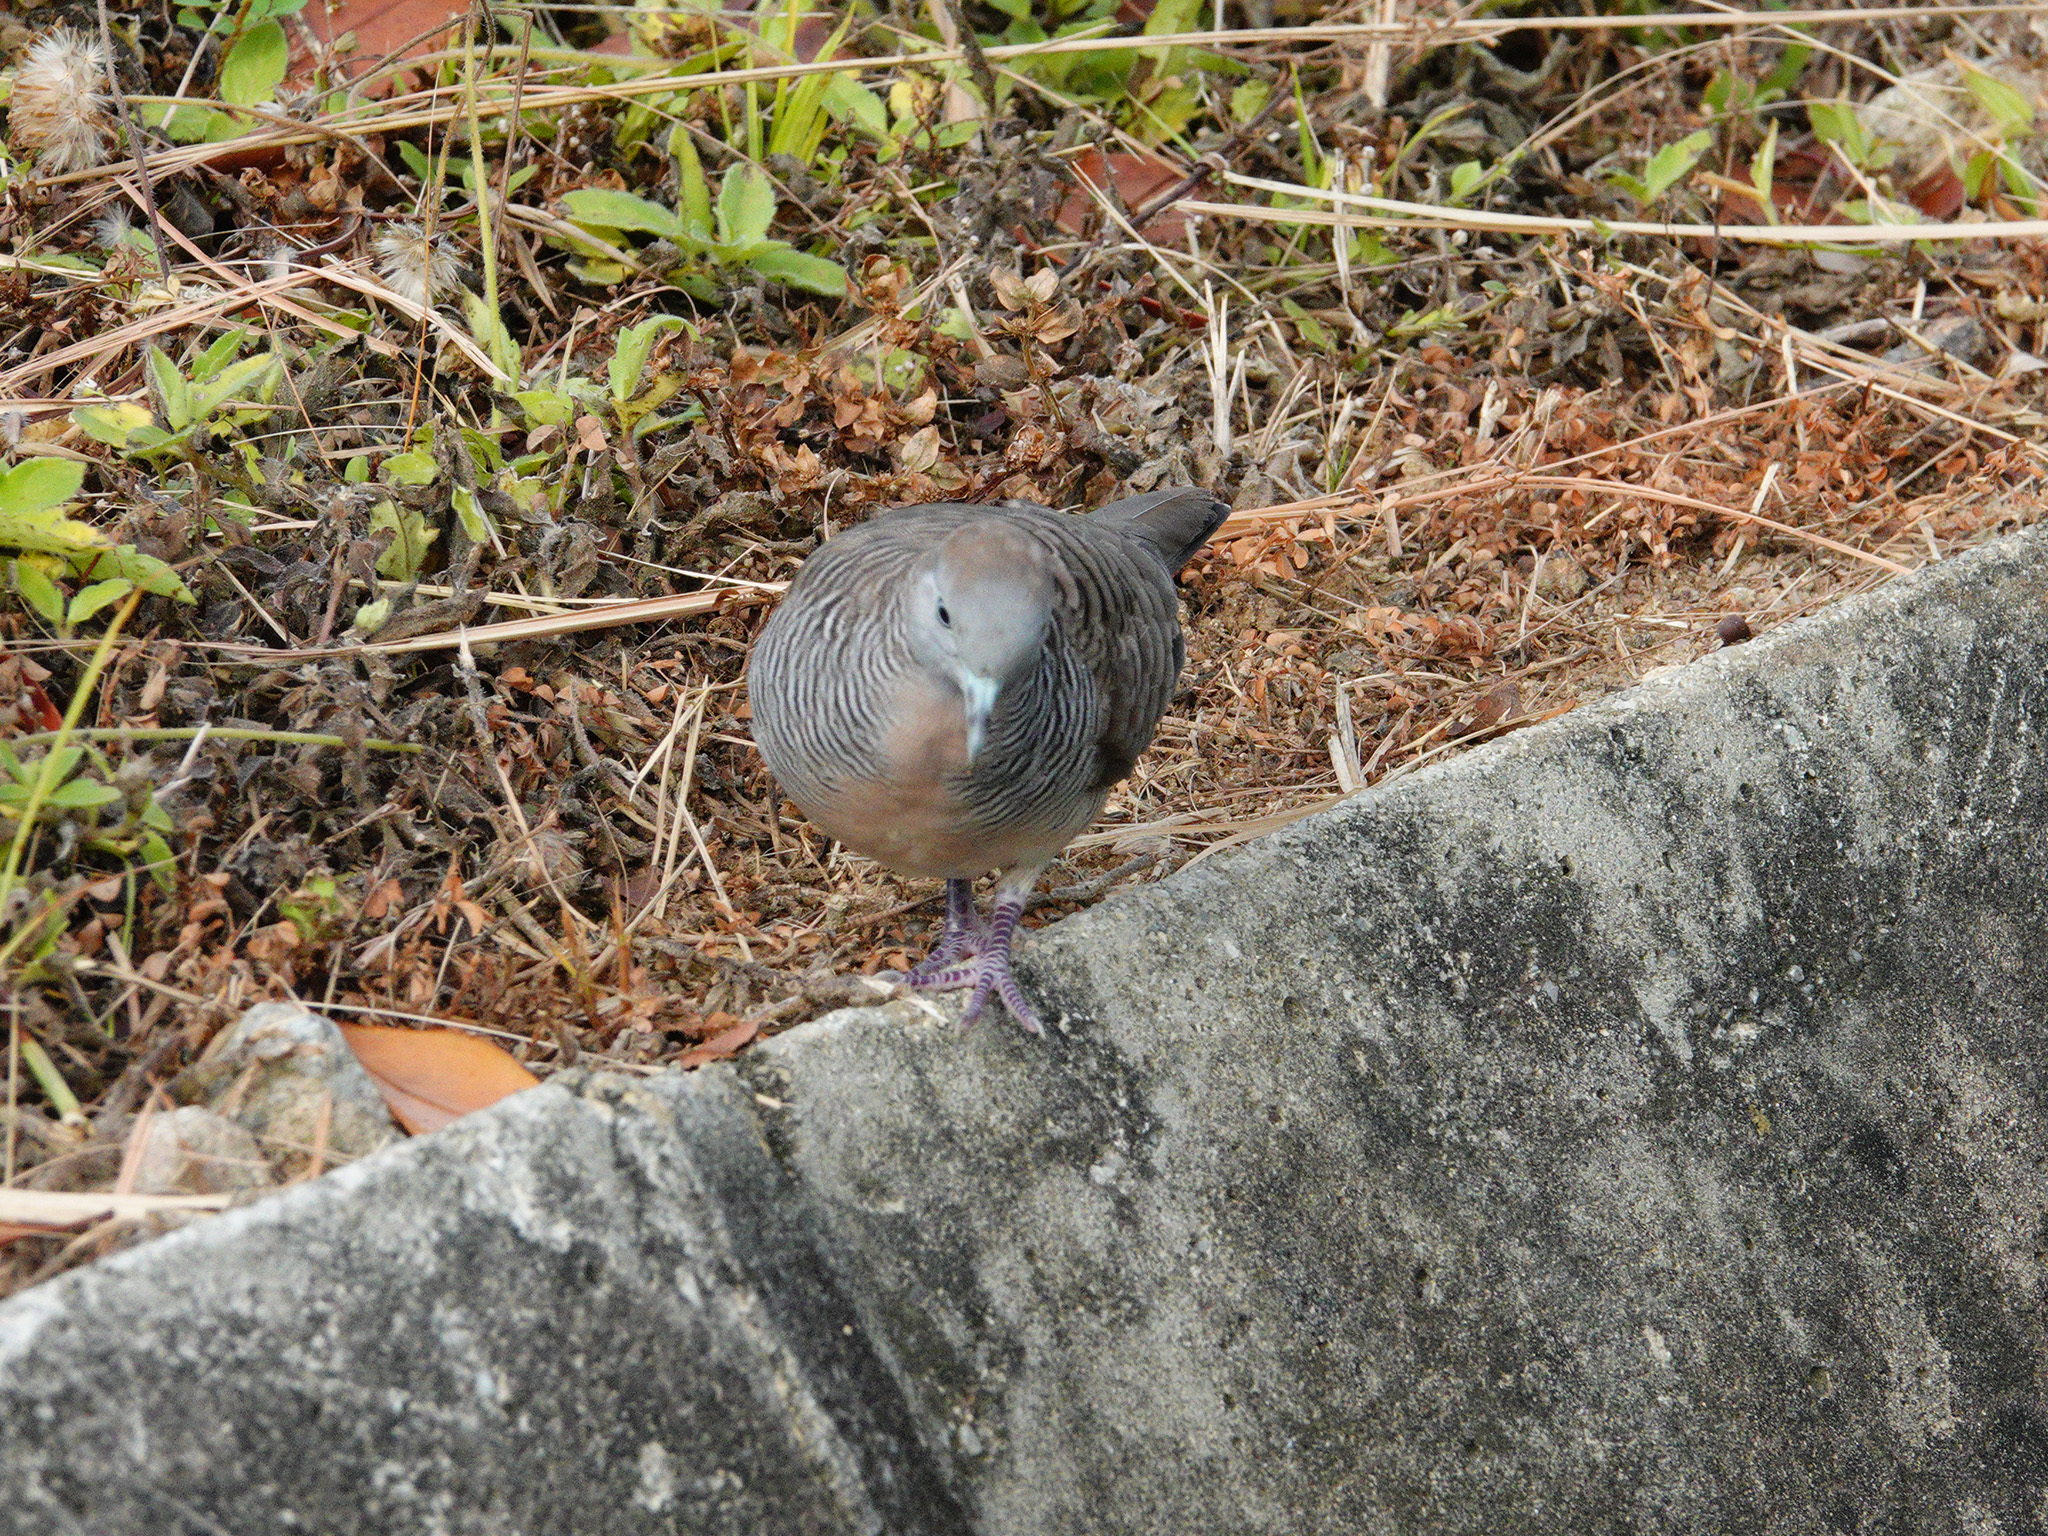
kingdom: Animalia
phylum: Chordata
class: Aves
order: Columbiformes
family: Columbidae
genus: Geopelia
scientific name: Geopelia striata
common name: Zebra dove
